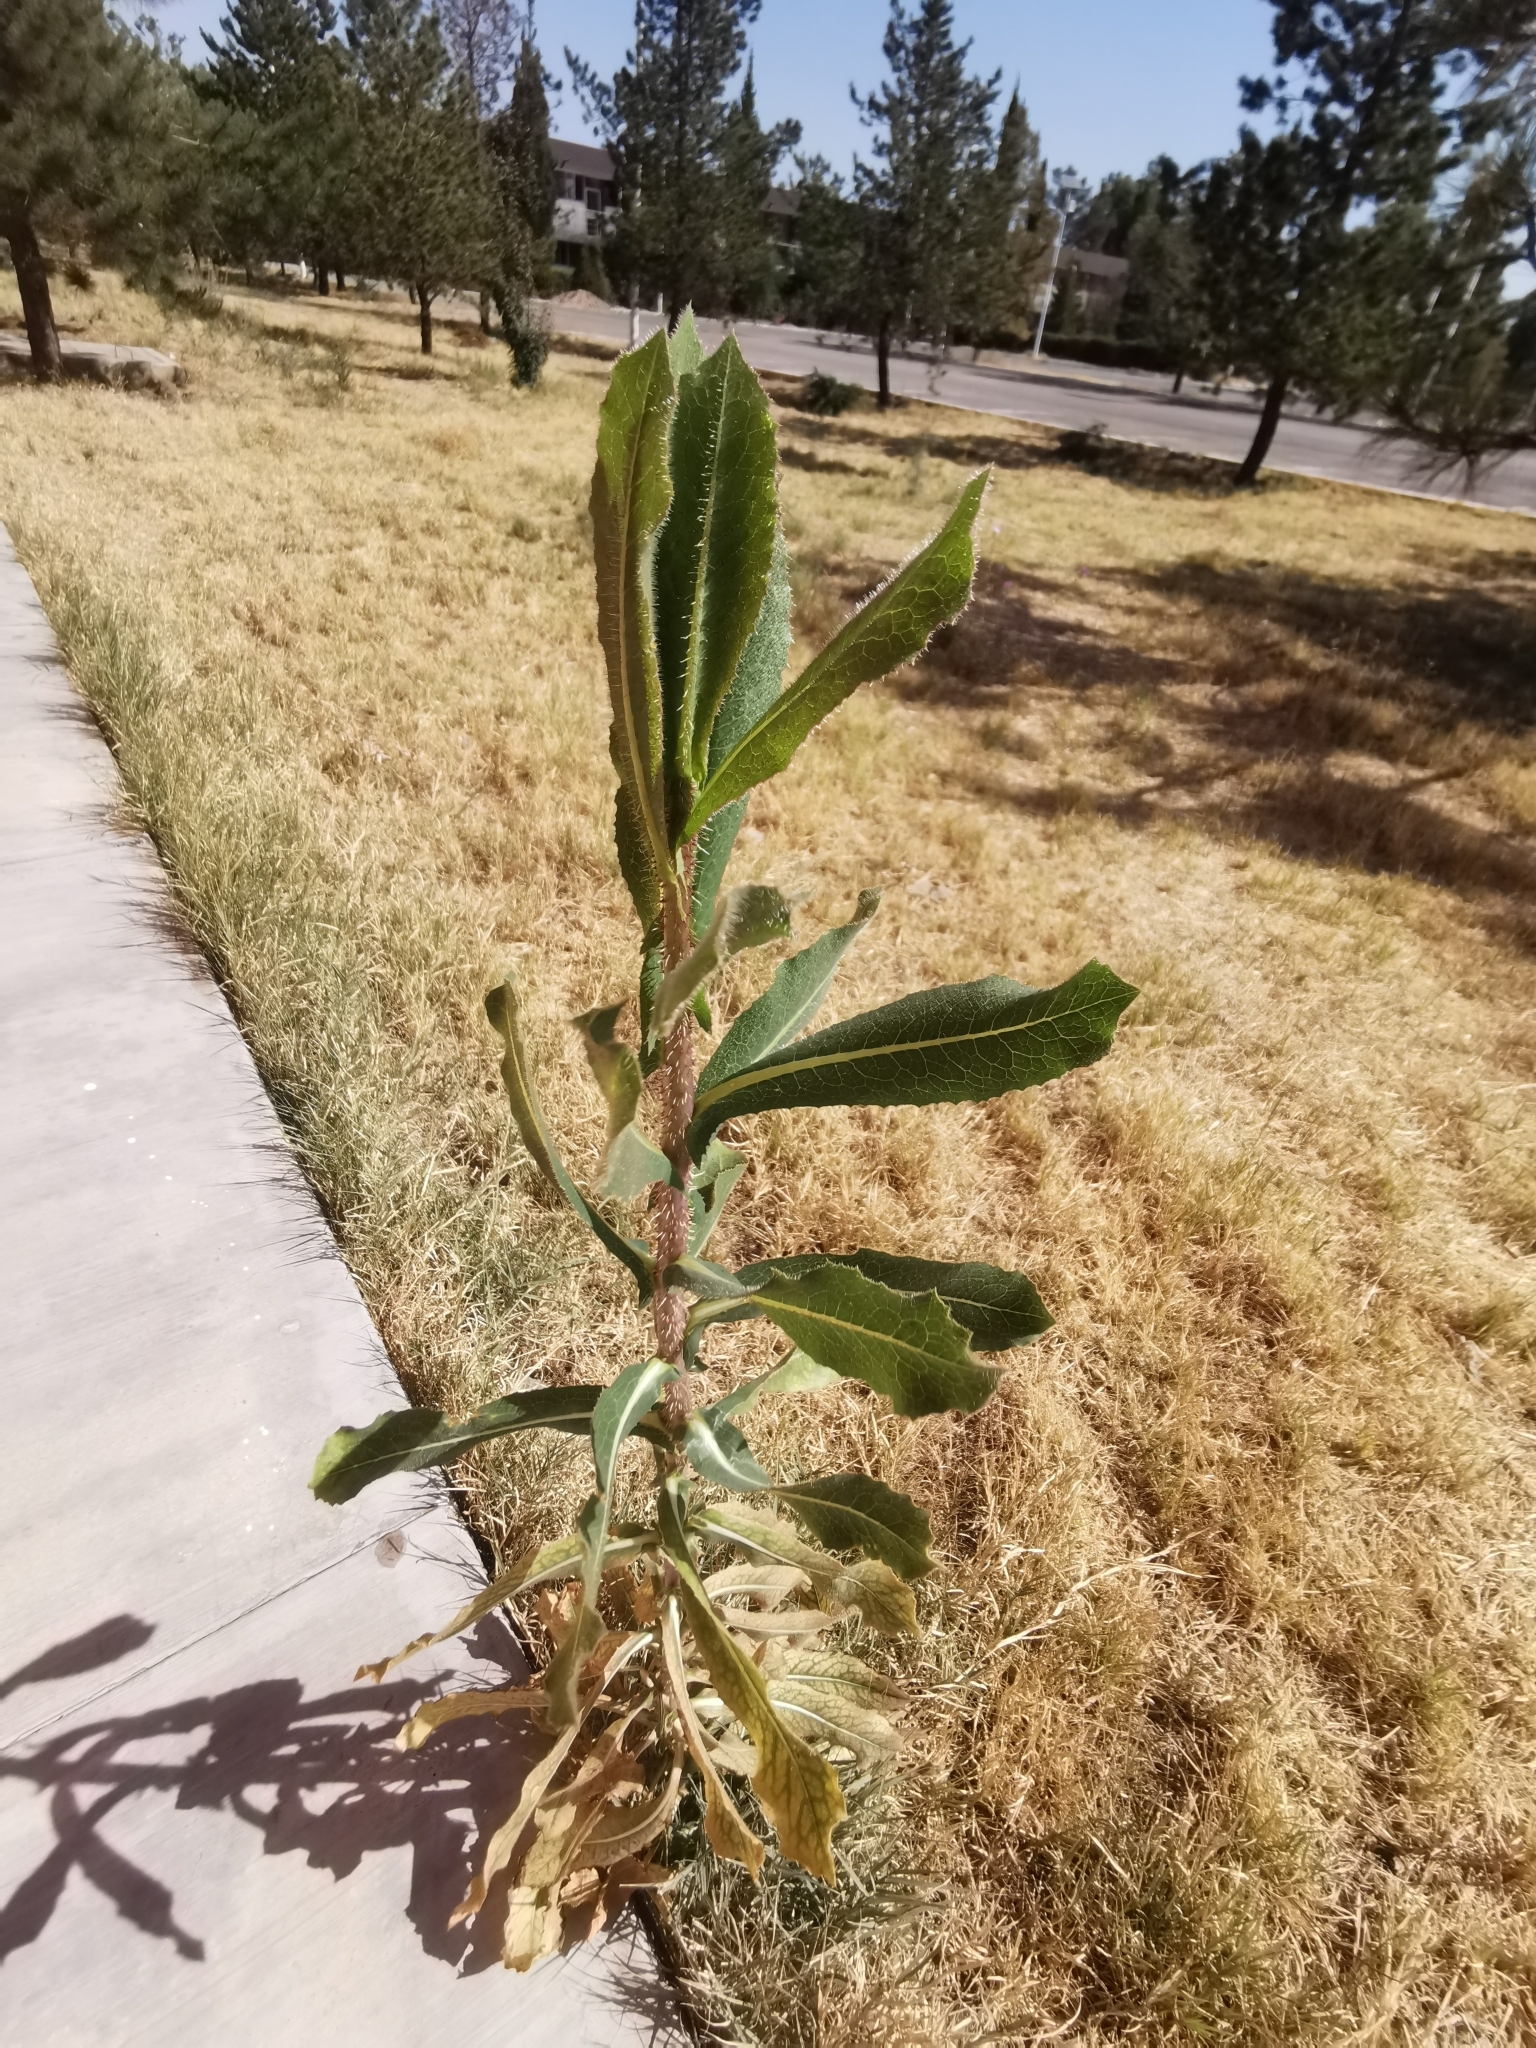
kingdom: Plantae
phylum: Tracheophyta
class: Magnoliopsida
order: Asterales
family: Asteraceae
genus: Lactuca
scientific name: Lactuca serriola
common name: Prickly lettuce
